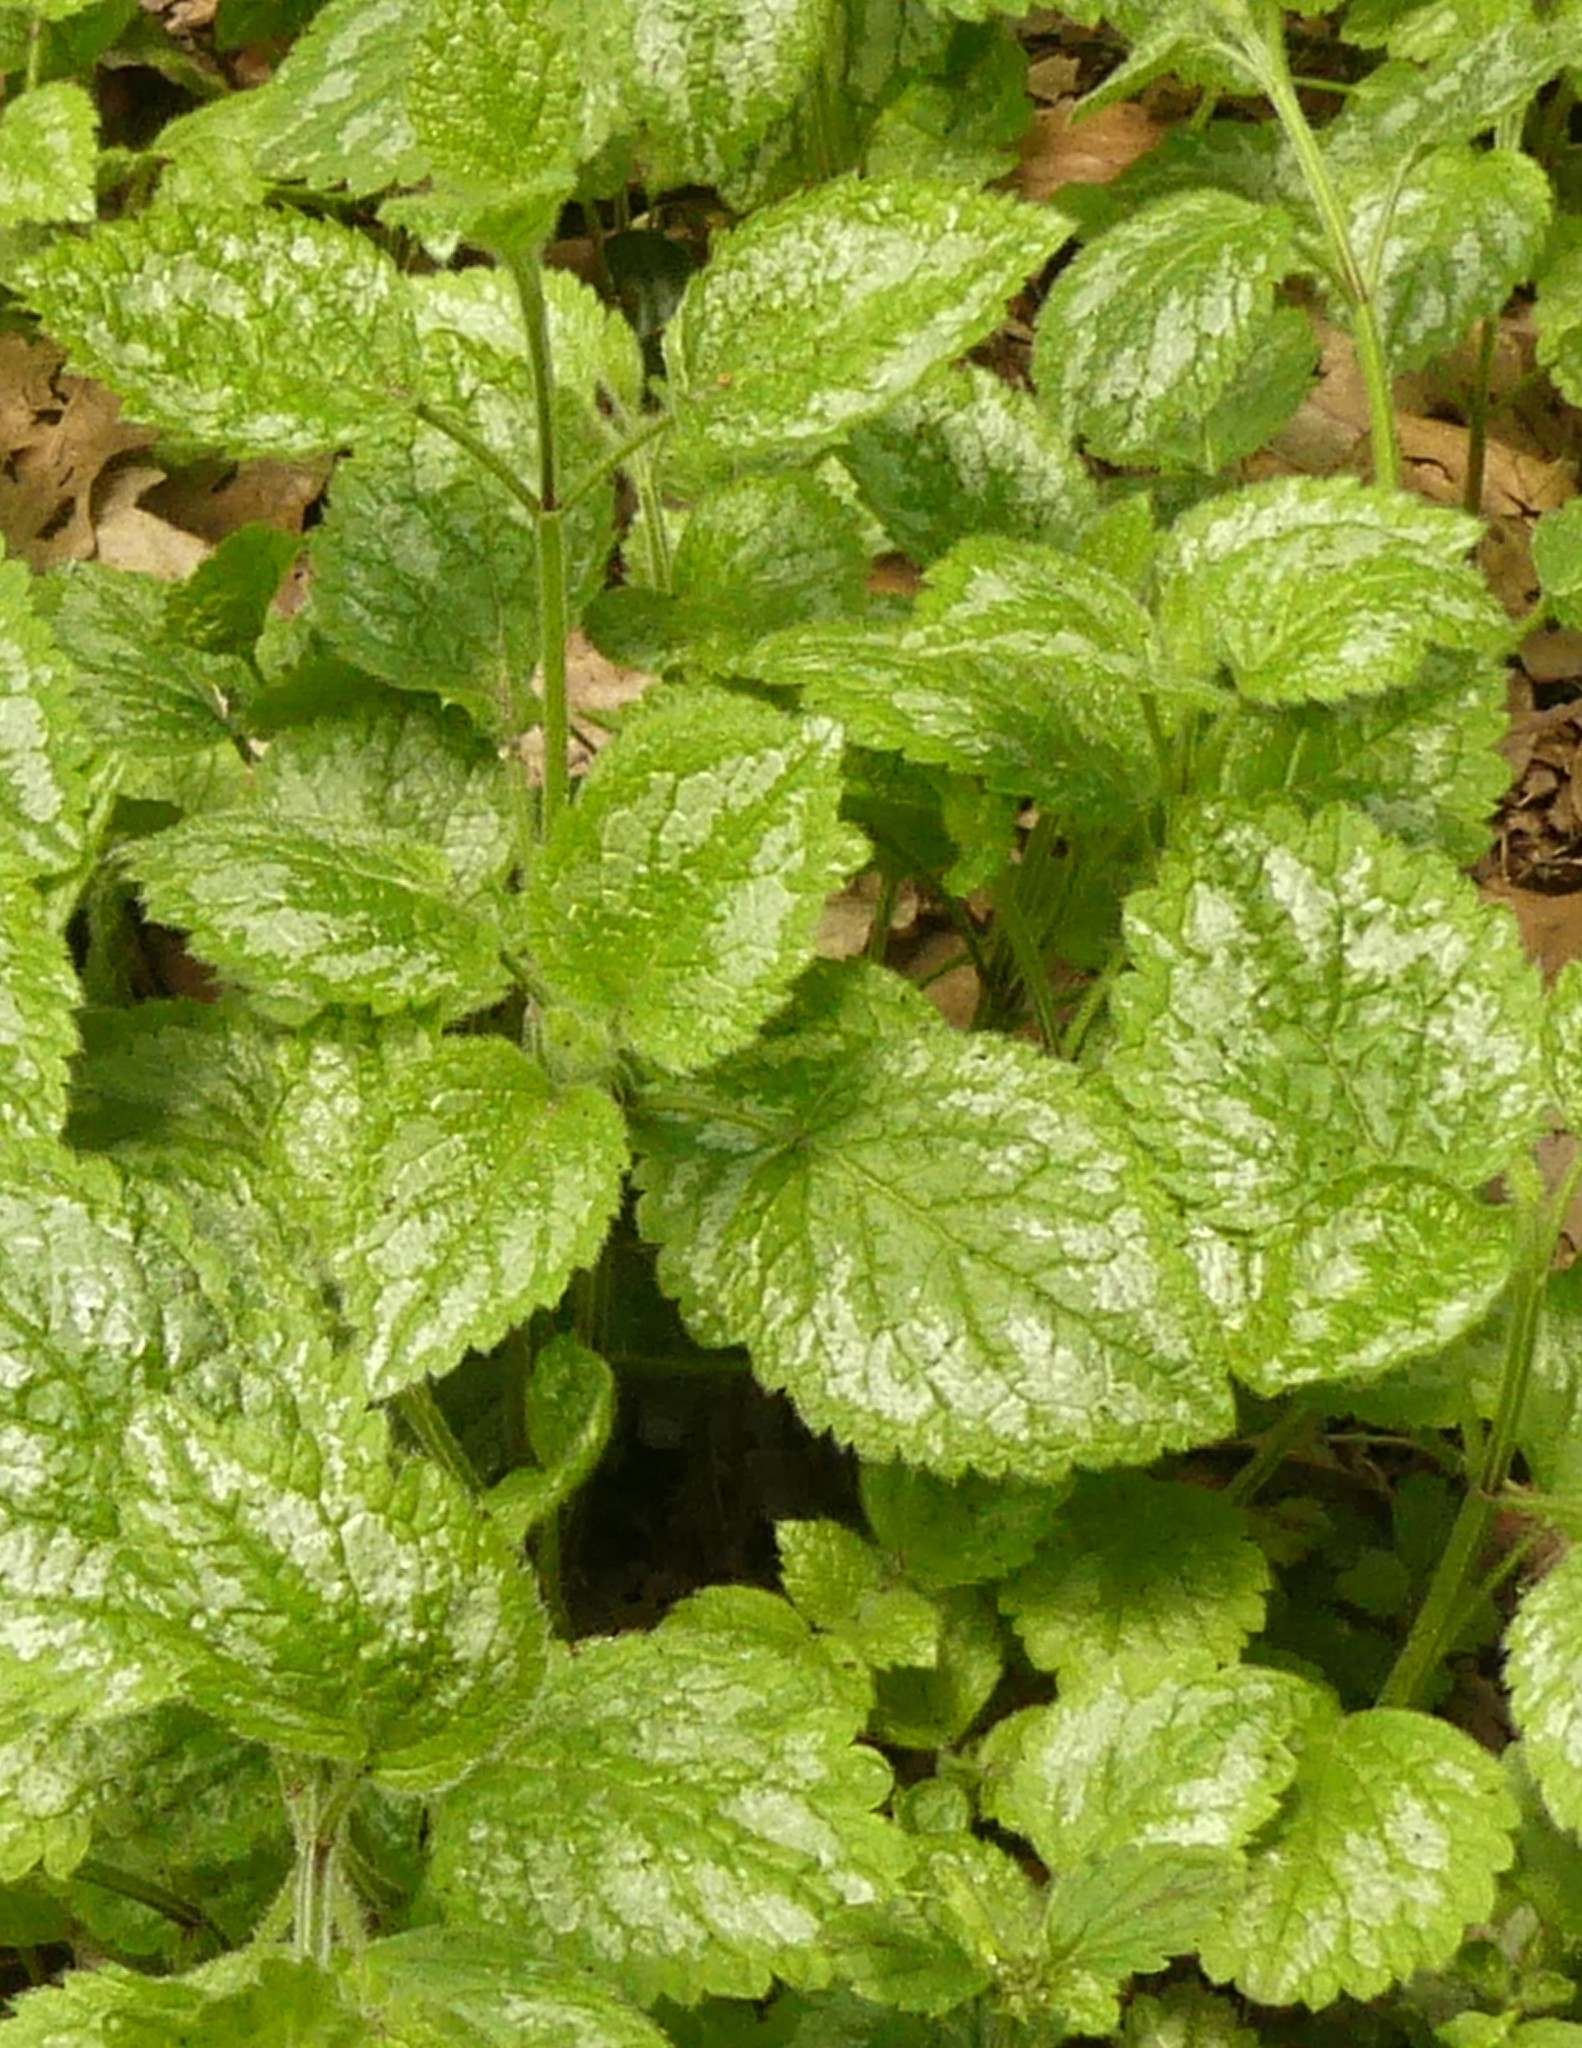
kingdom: Plantae
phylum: Tracheophyta
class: Magnoliopsida
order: Lamiales
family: Lamiaceae
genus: Lamium
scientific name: Lamium galeobdolon
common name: Yellow archangel
